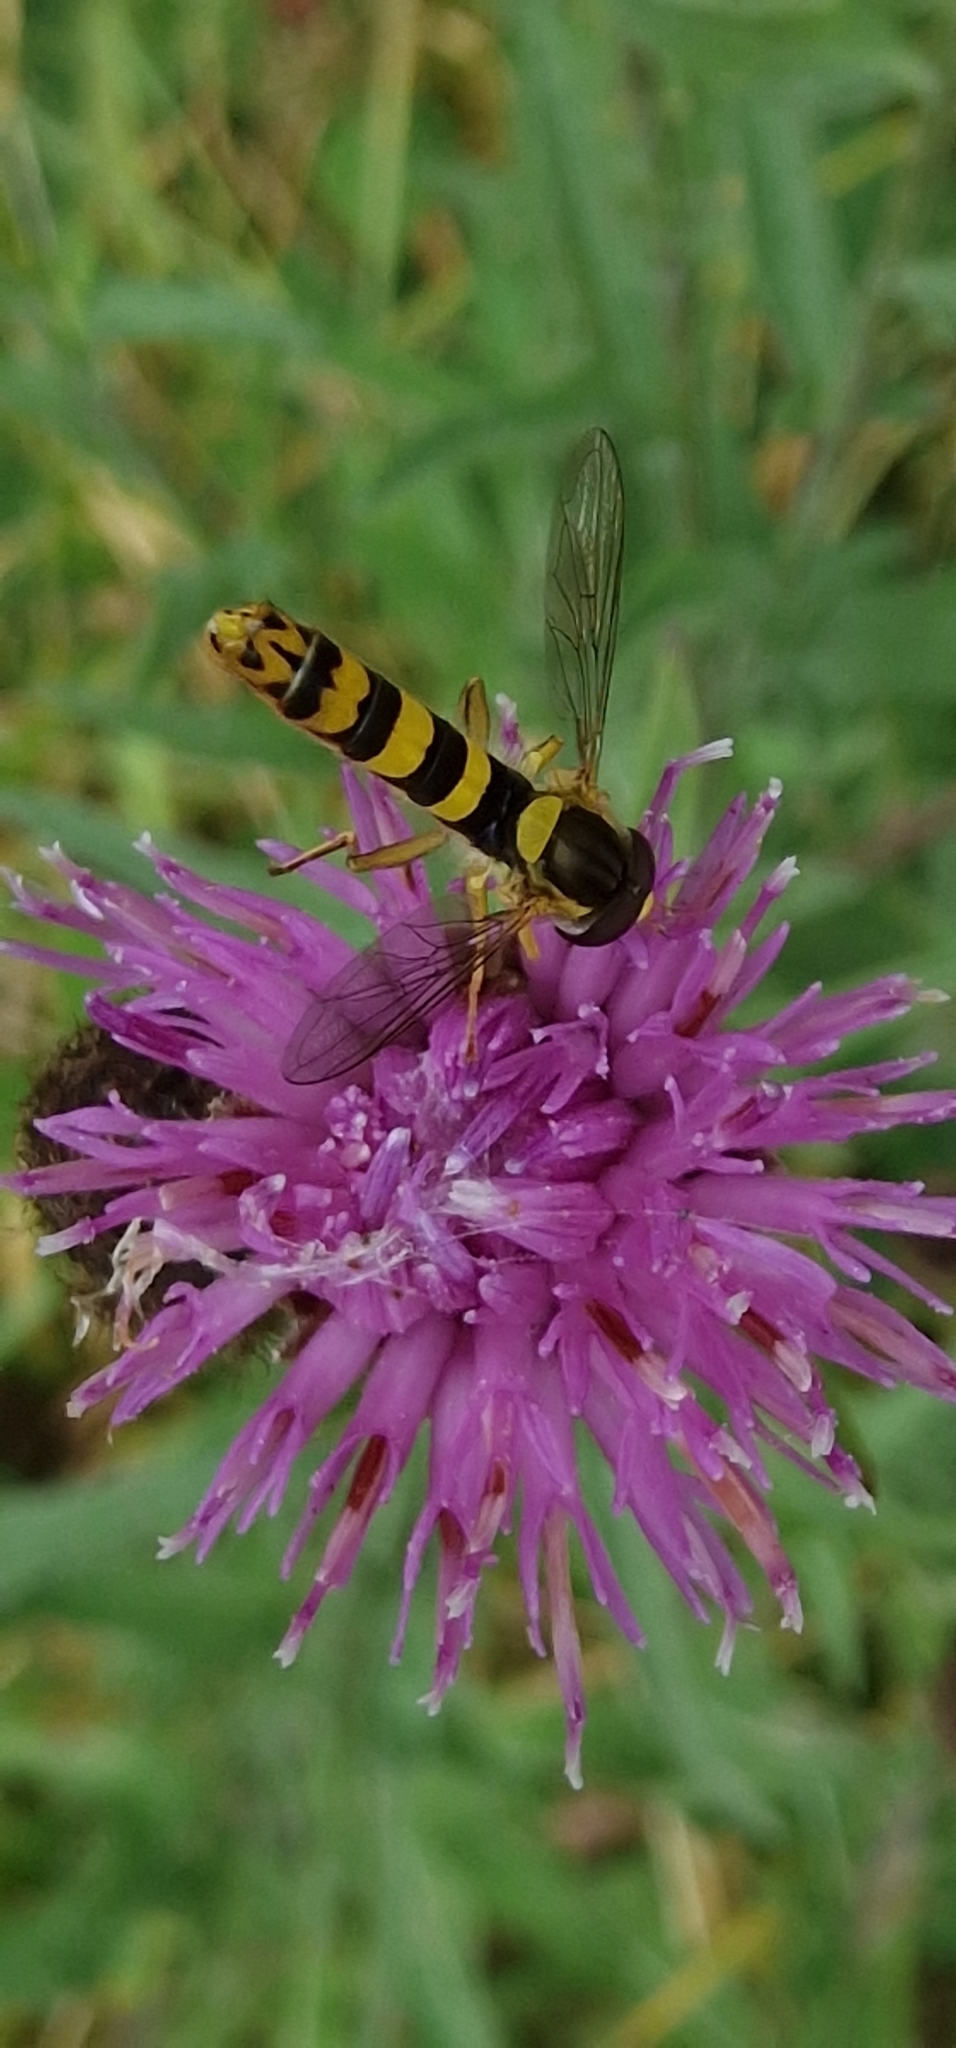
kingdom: Animalia
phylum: Arthropoda
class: Insecta
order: Diptera
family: Syrphidae
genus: Sphaerophoria
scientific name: Sphaerophoria scripta
